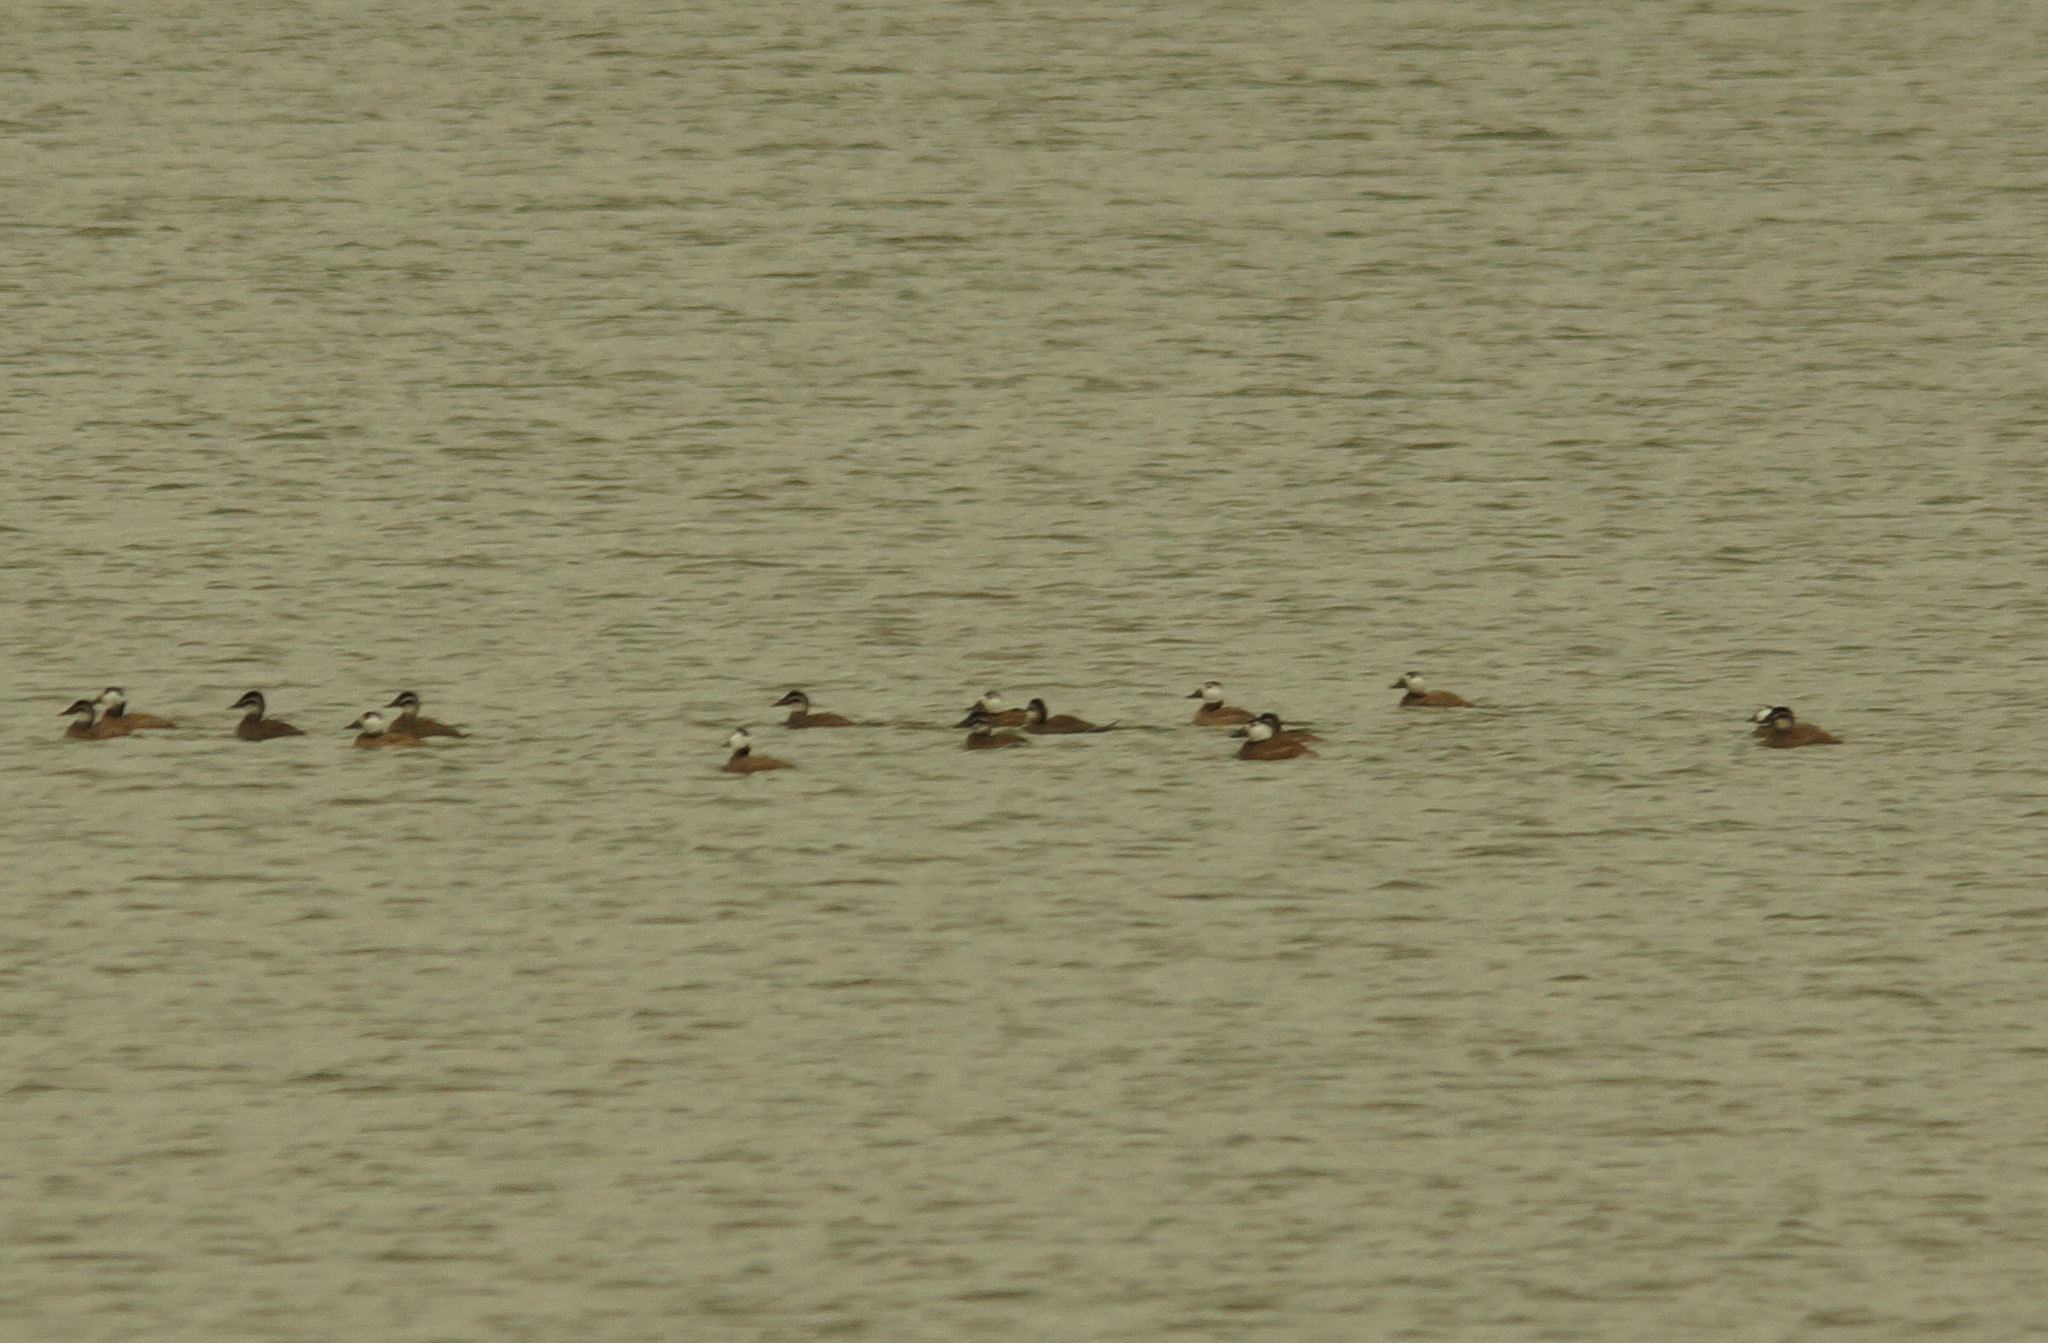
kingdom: Animalia
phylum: Chordata
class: Aves
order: Anseriformes
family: Anatidae
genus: Oxyura
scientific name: Oxyura leucocephala
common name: White-headed duck
